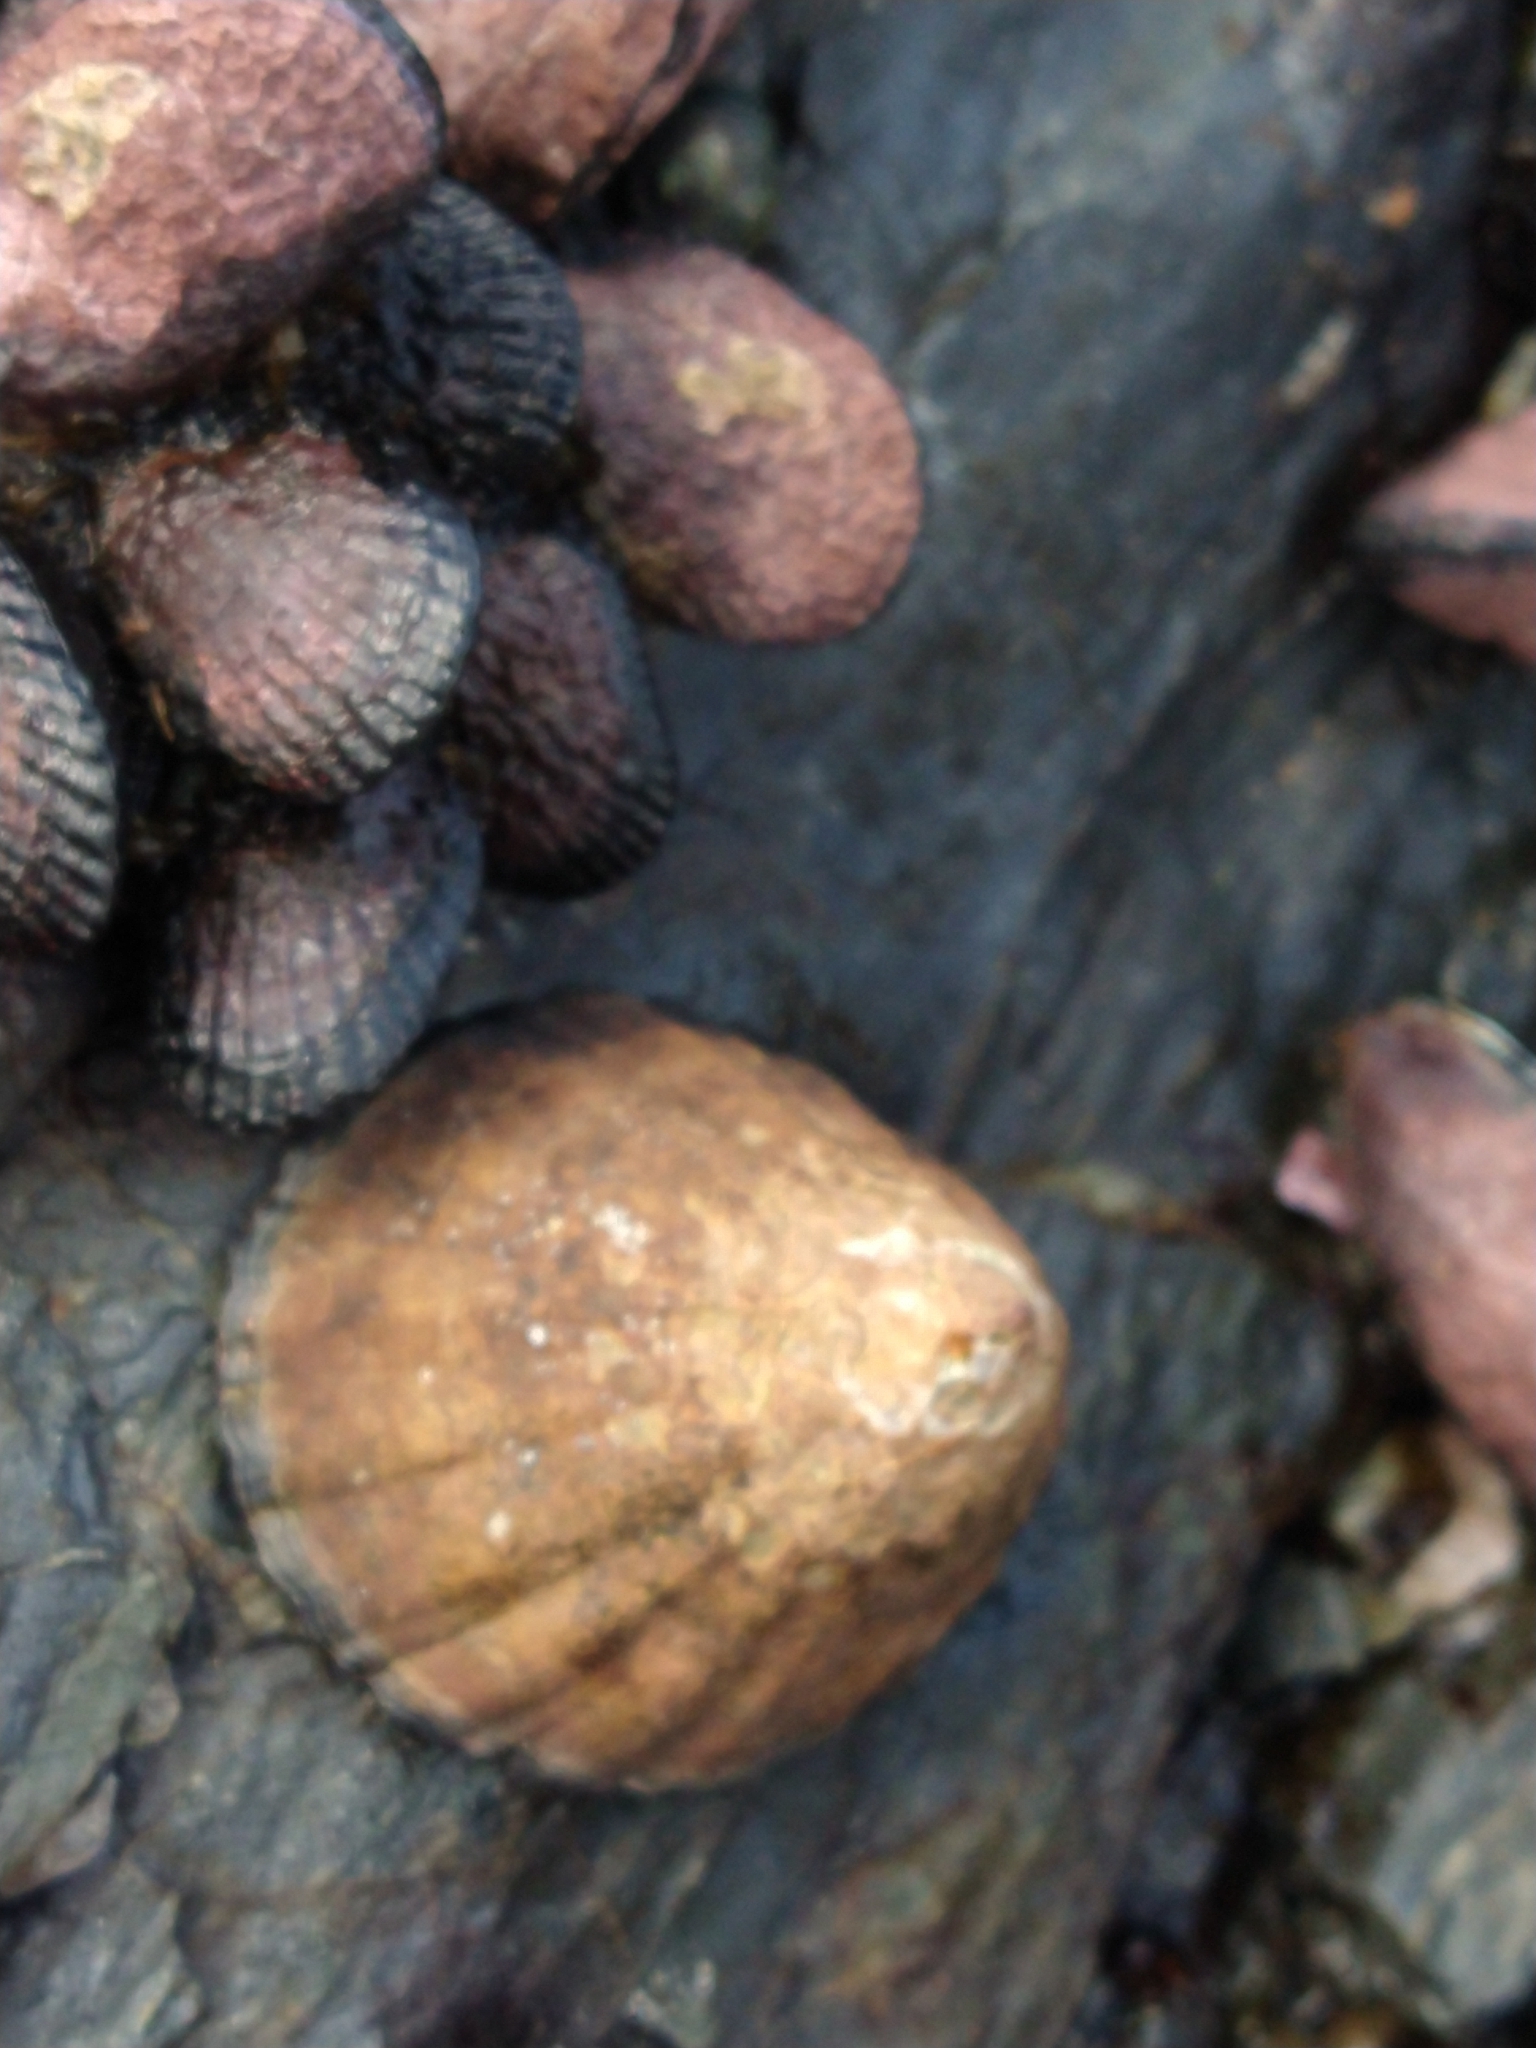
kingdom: Animalia
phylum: Mollusca
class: Gastropoda
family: Nacellidae
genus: Nacella
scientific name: Nacella magellanica
